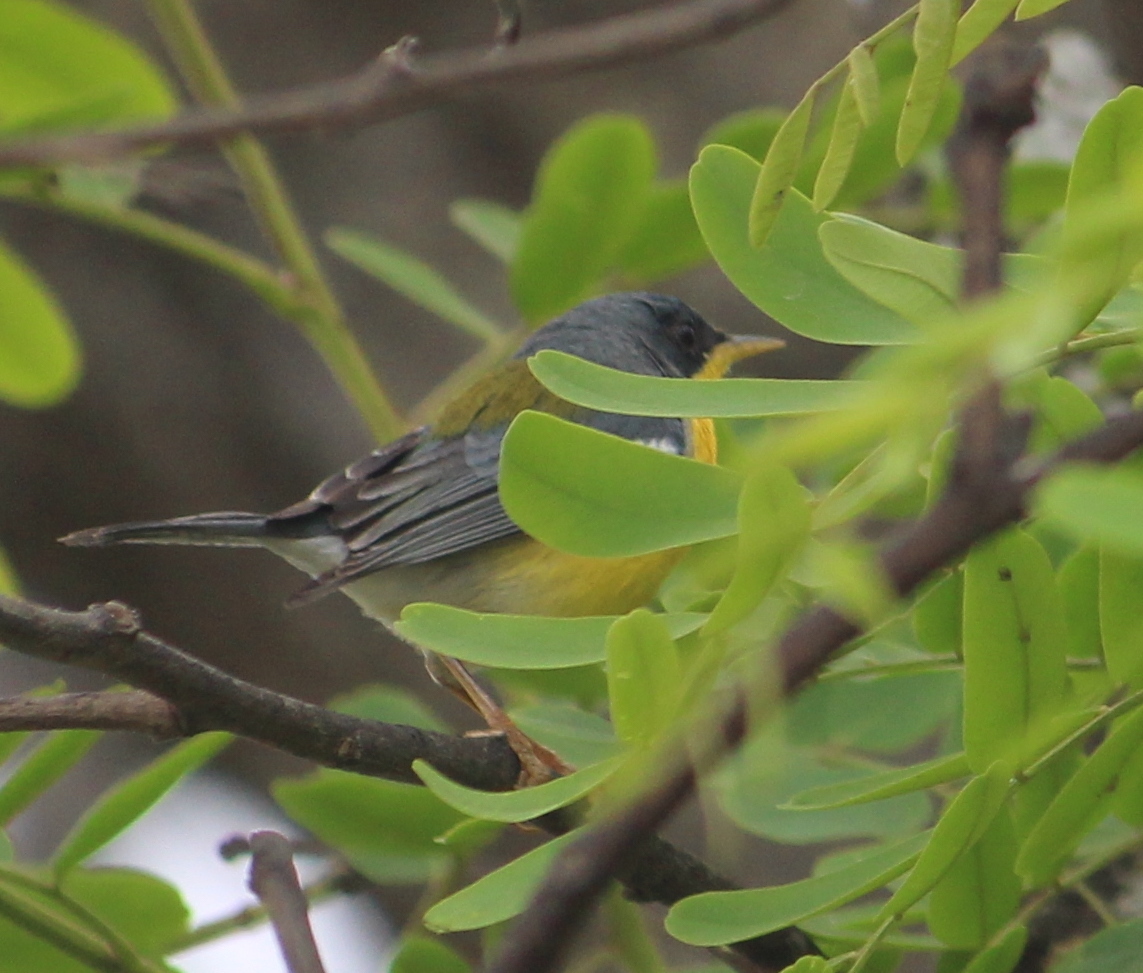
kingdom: Animalia
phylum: Chordata
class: Aves
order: Passeriformes
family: Parulidae
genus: Setophaga
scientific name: Setophaga pitiayumi
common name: Tropical parula
